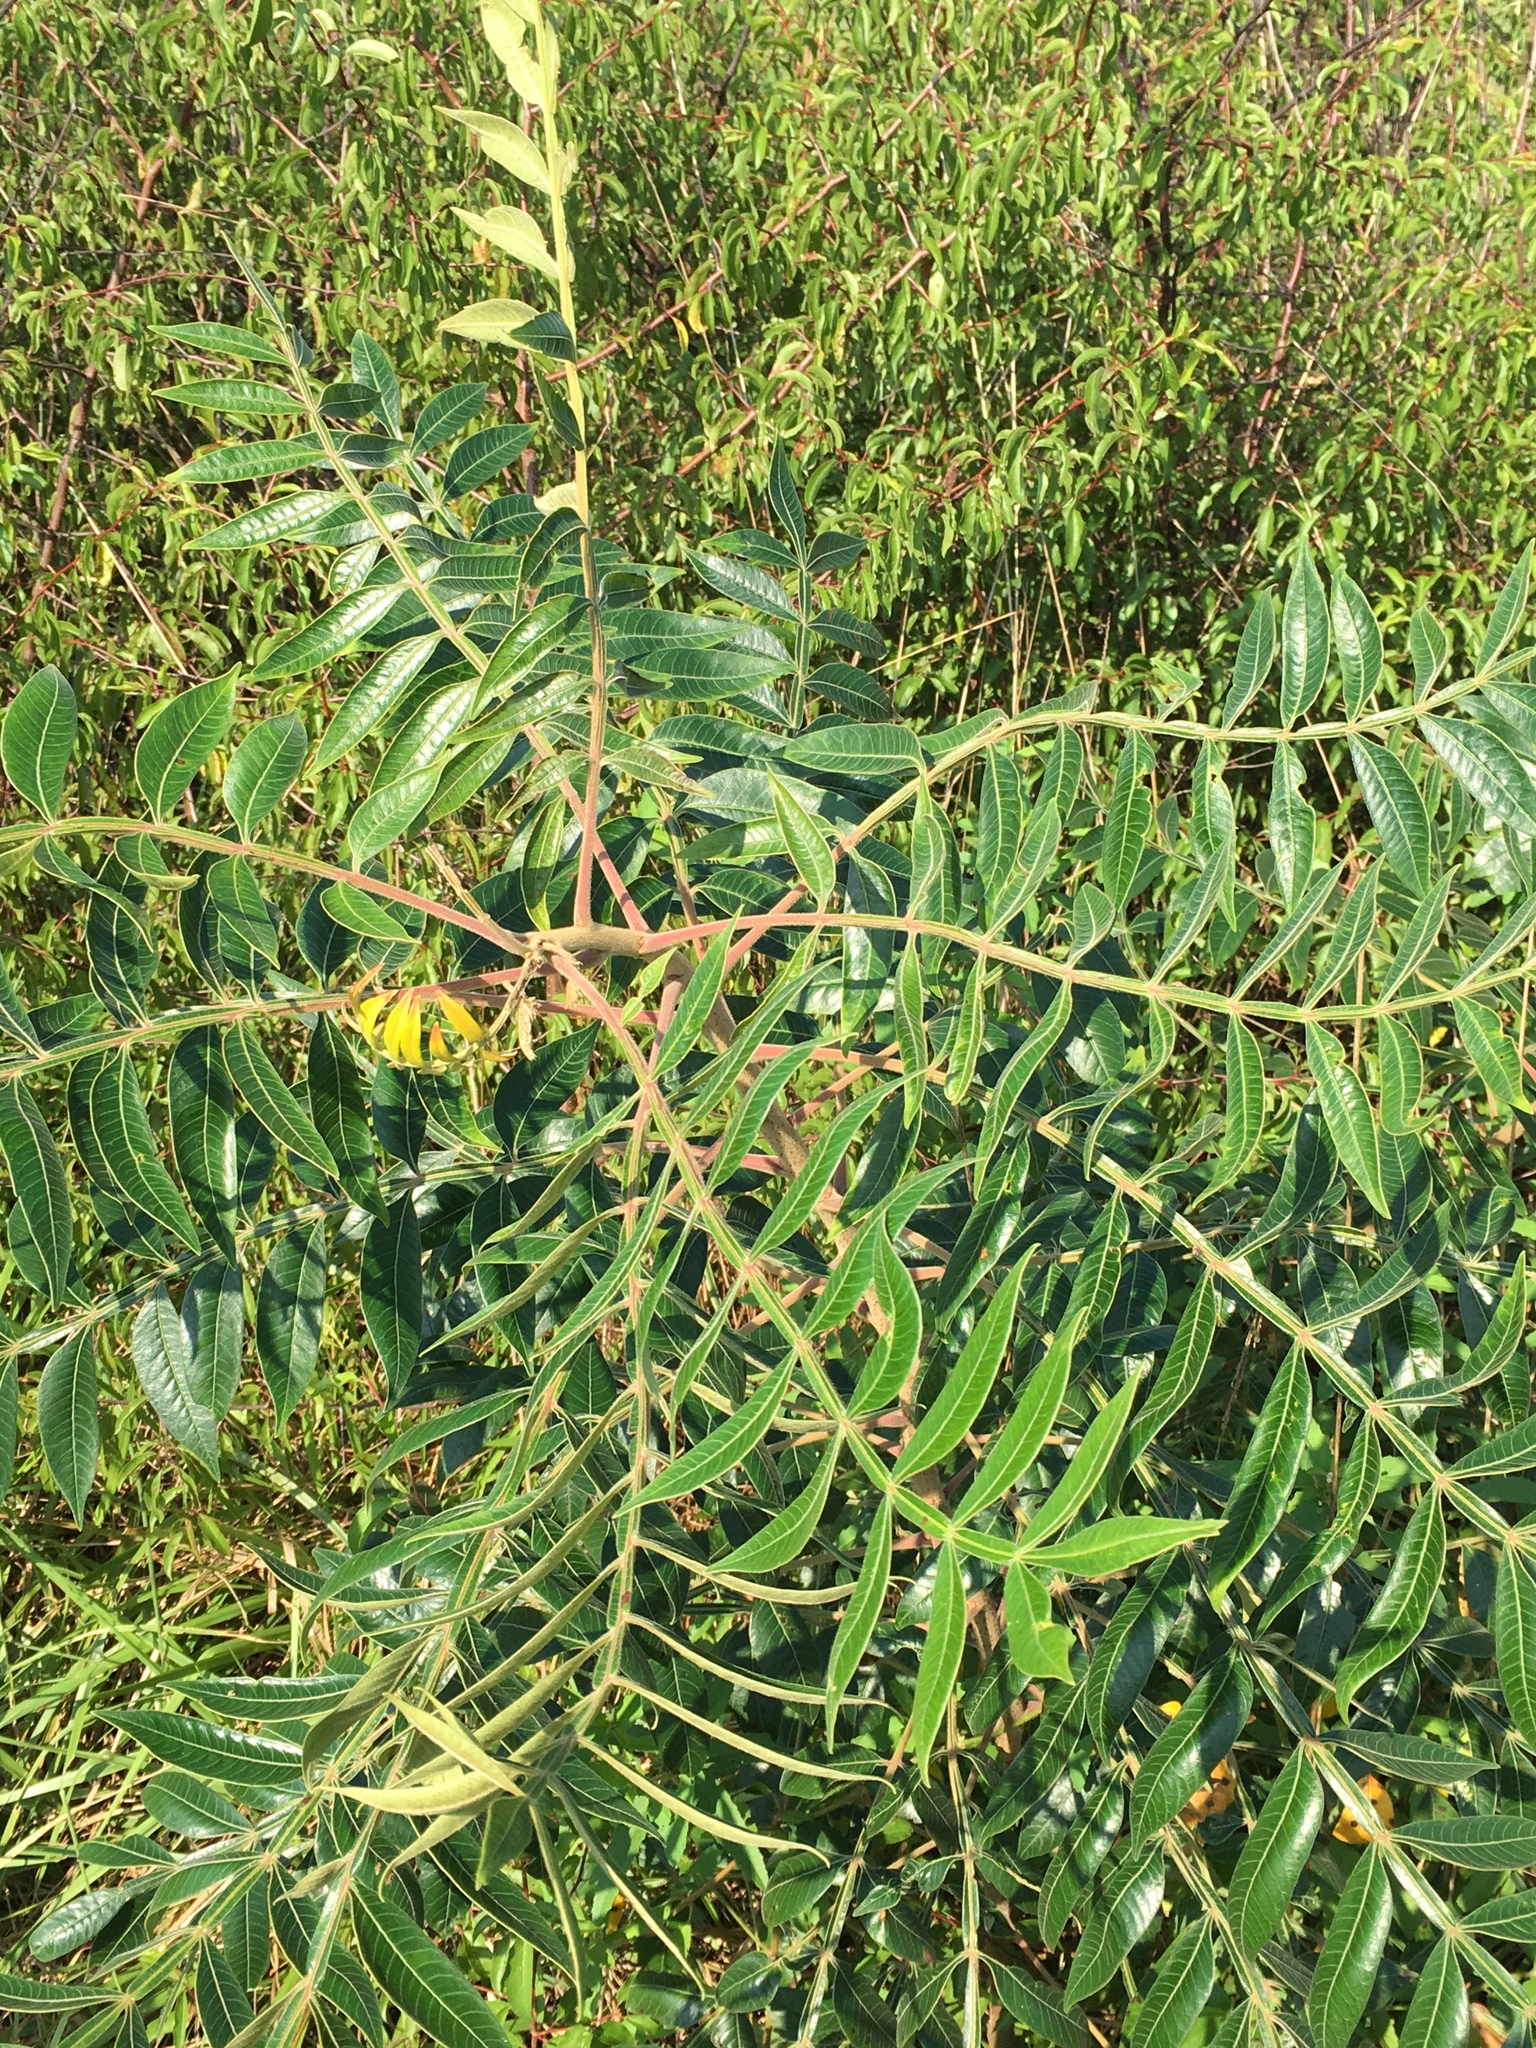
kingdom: Plantae
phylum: Tracheophyta
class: Magnoliopsida
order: Sapindales
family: Anacardiaceae
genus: Rhus
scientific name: Rhus copallina
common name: Shining sumac
